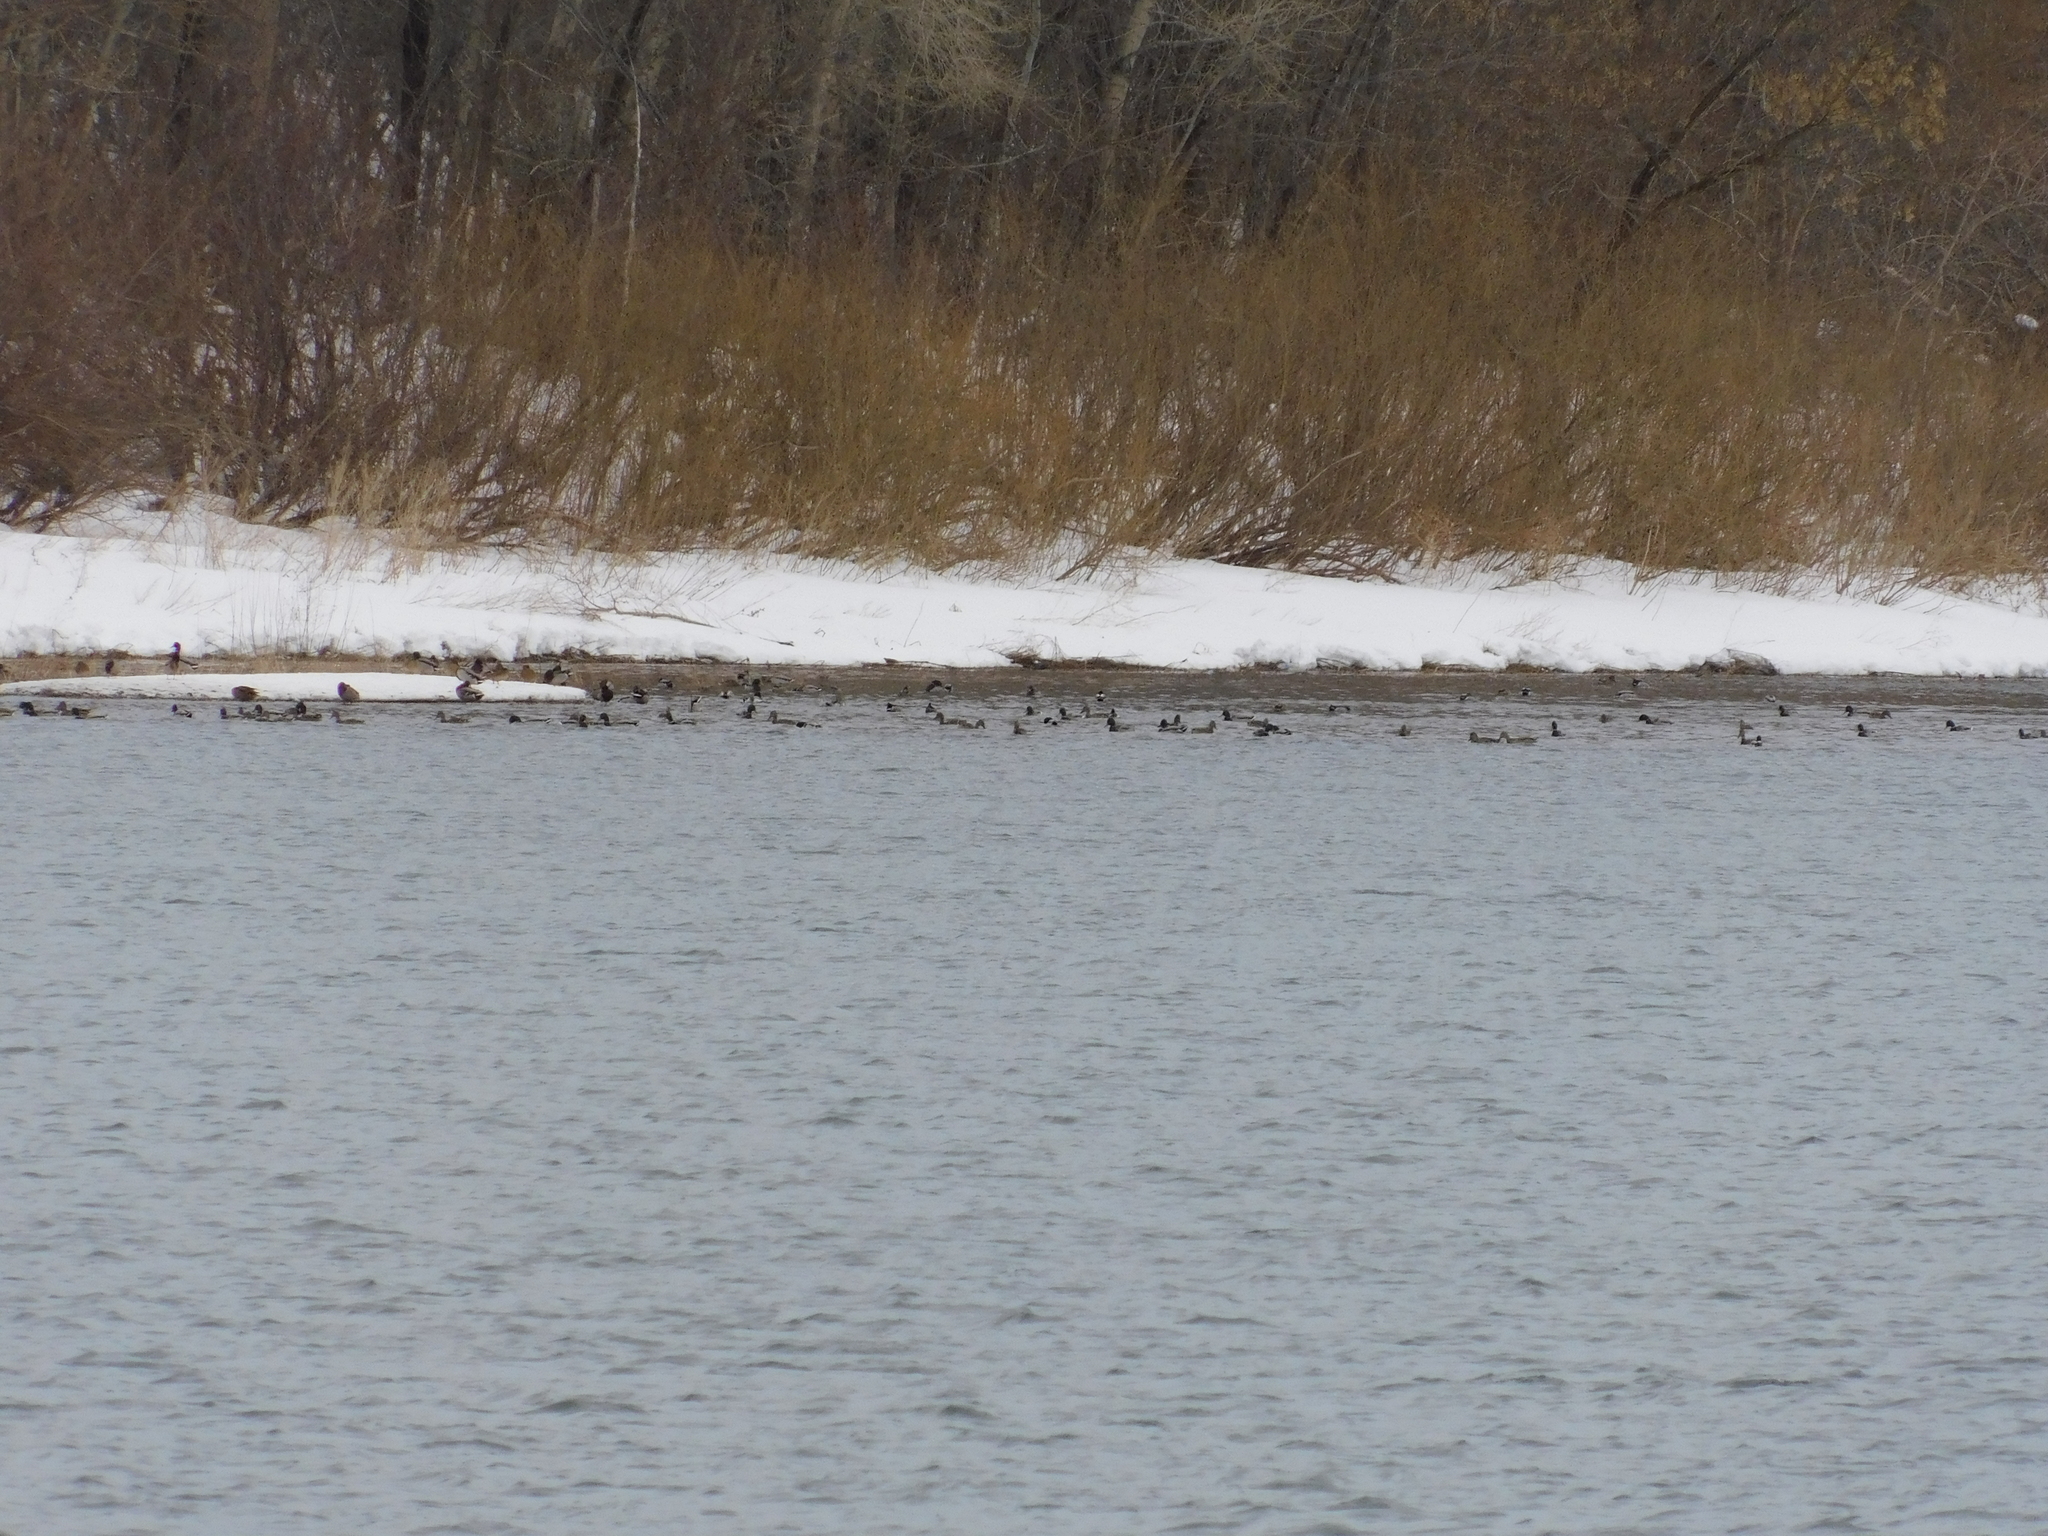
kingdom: Animalia
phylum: Chordata
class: Aves
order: Anseriformes
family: Anatidae
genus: Anas
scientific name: Anas platyrhynchos
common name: Mallard
